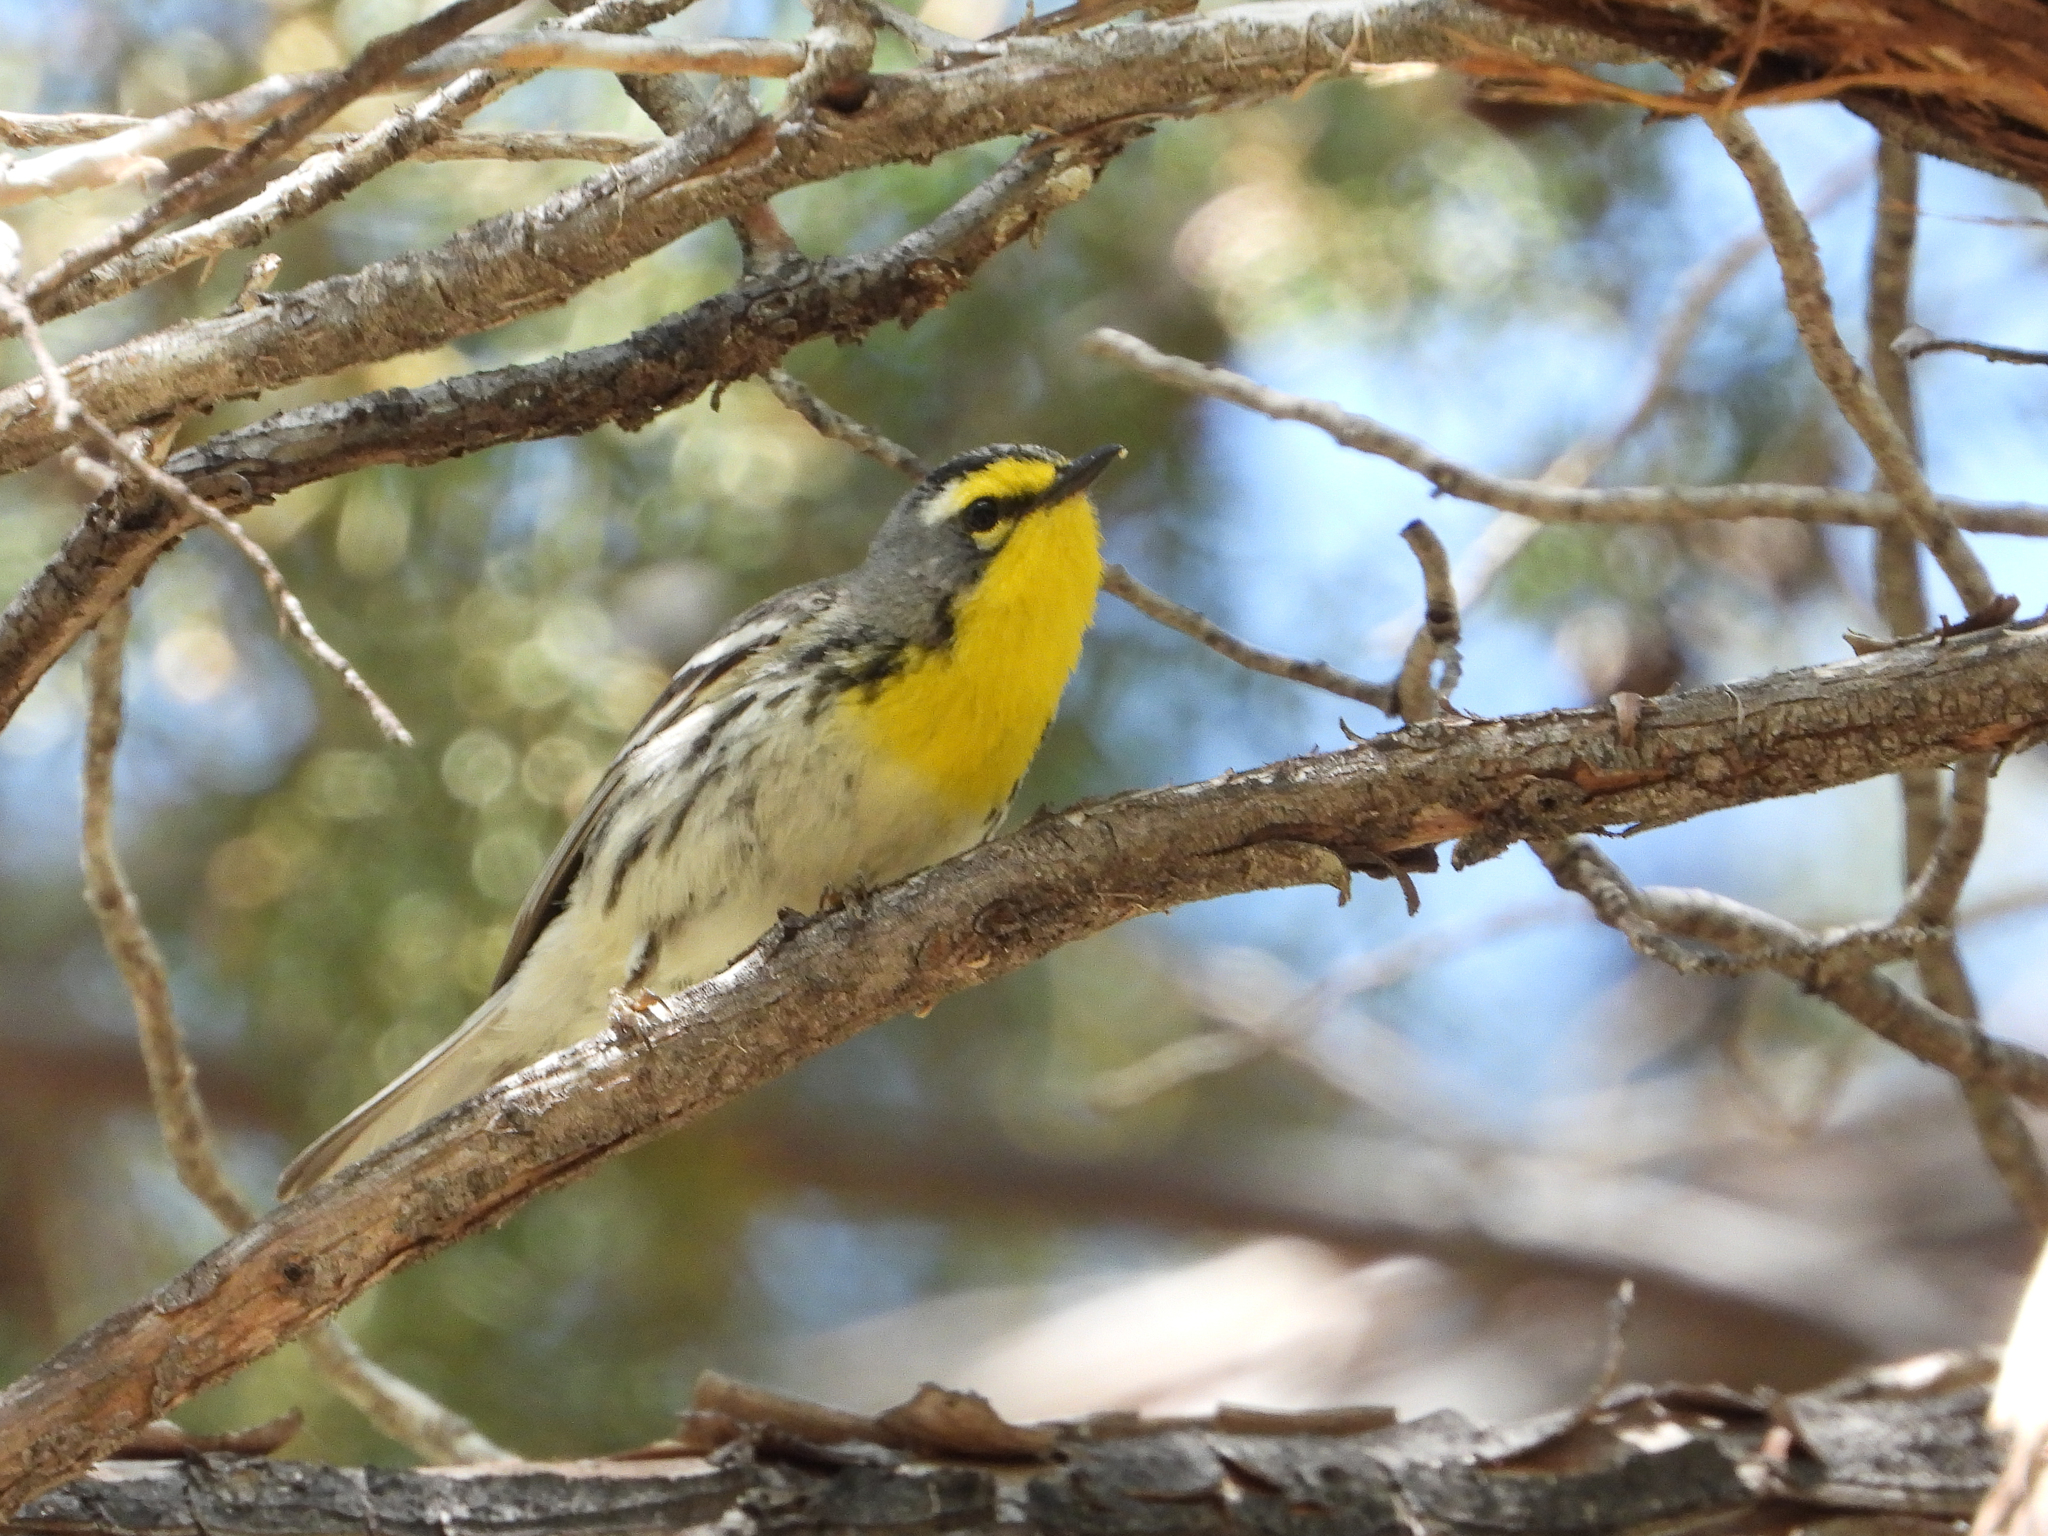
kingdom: Animalia
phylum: Chordata
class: Aves
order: Passeriformes
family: Parulidae
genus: Setophaga
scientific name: Setophaga graciae
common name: Grace's warbler
